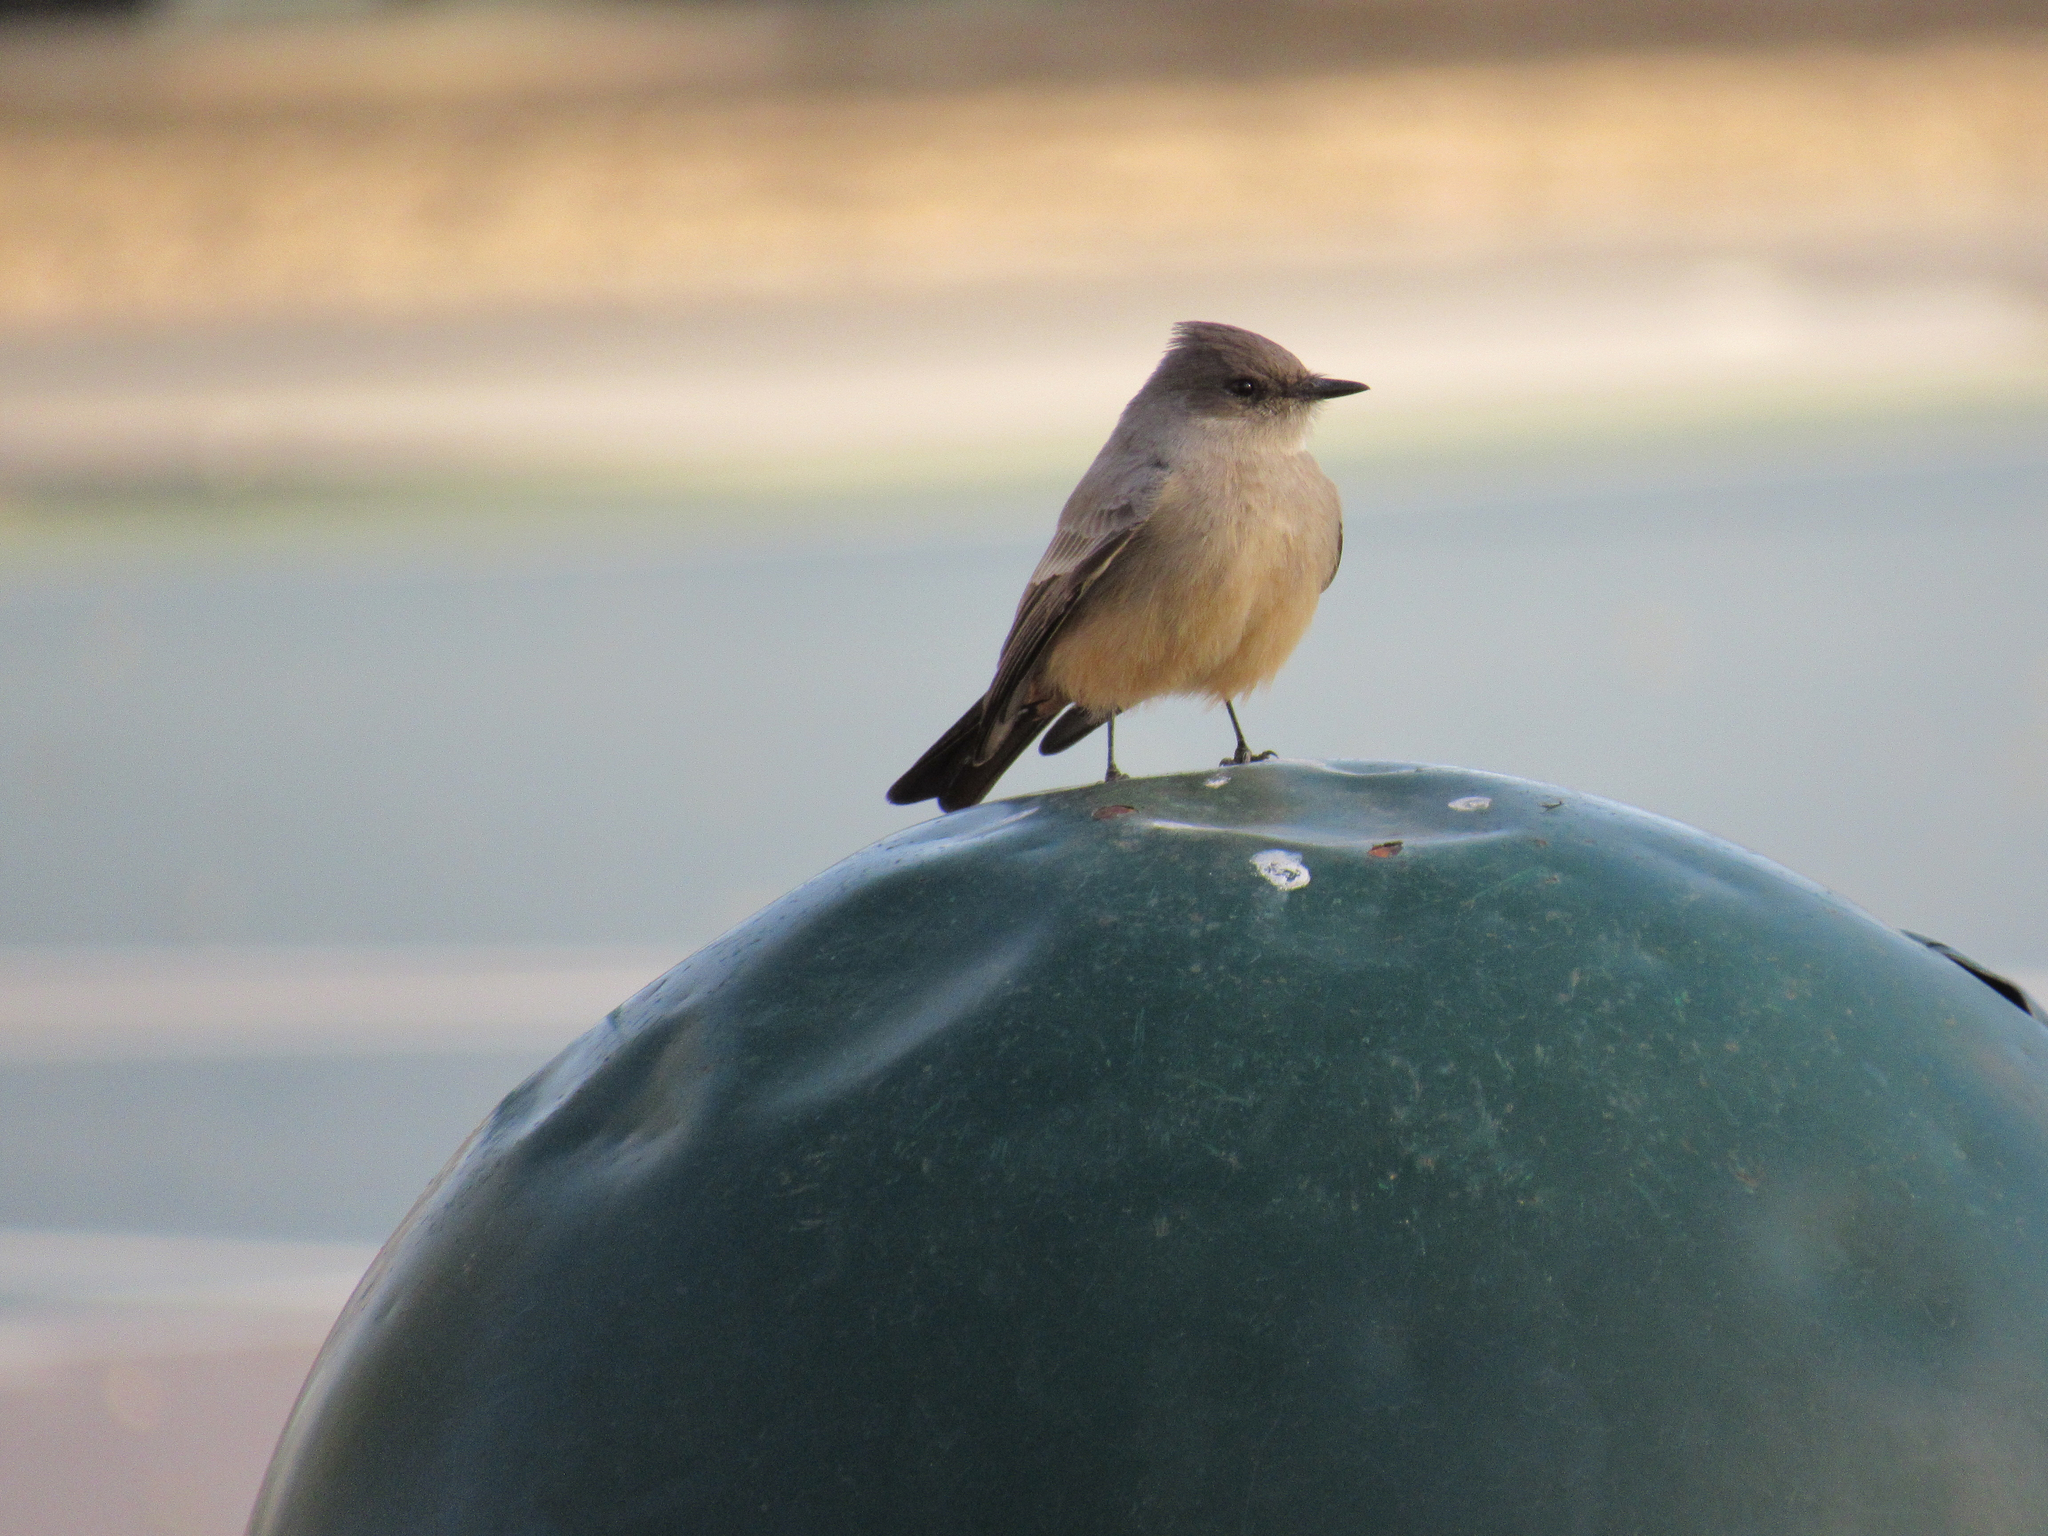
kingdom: Animalia
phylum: Chordata
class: Aves
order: Passeriformes
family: Tyrannidae
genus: Sayornis
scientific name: Sayornis saya
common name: Say's phoebe
